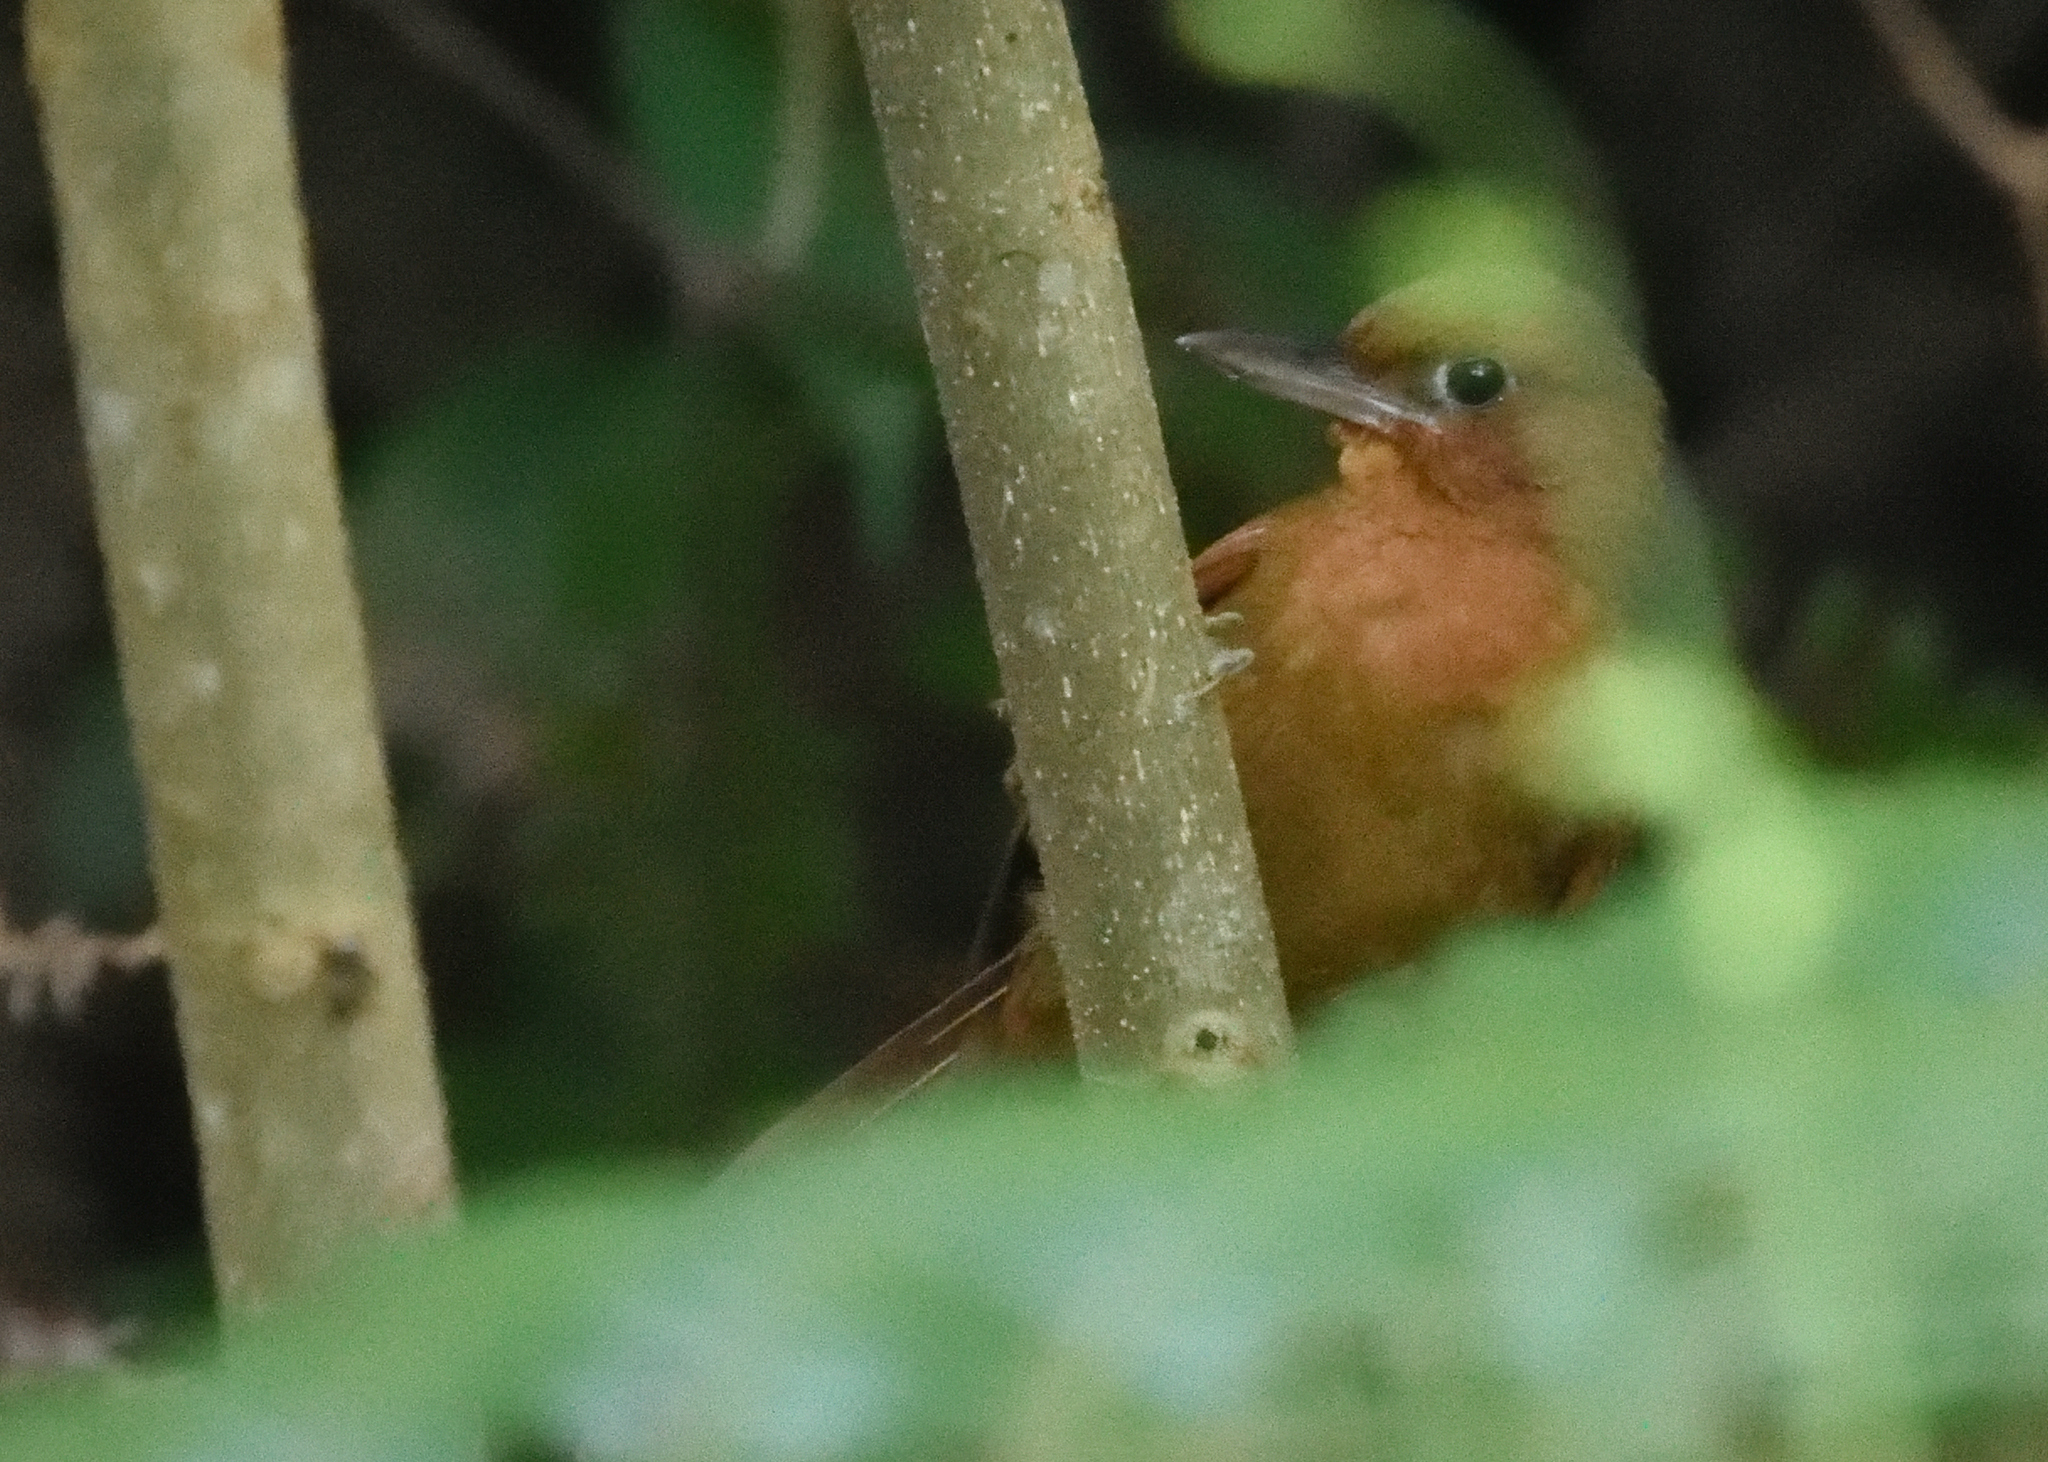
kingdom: Animalia
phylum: Chordata
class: Aves
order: Passeriformes
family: Furnariidae
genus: Clibanornis
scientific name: Clibanornis rufipectus
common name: Santa marta foliage-gleaner
